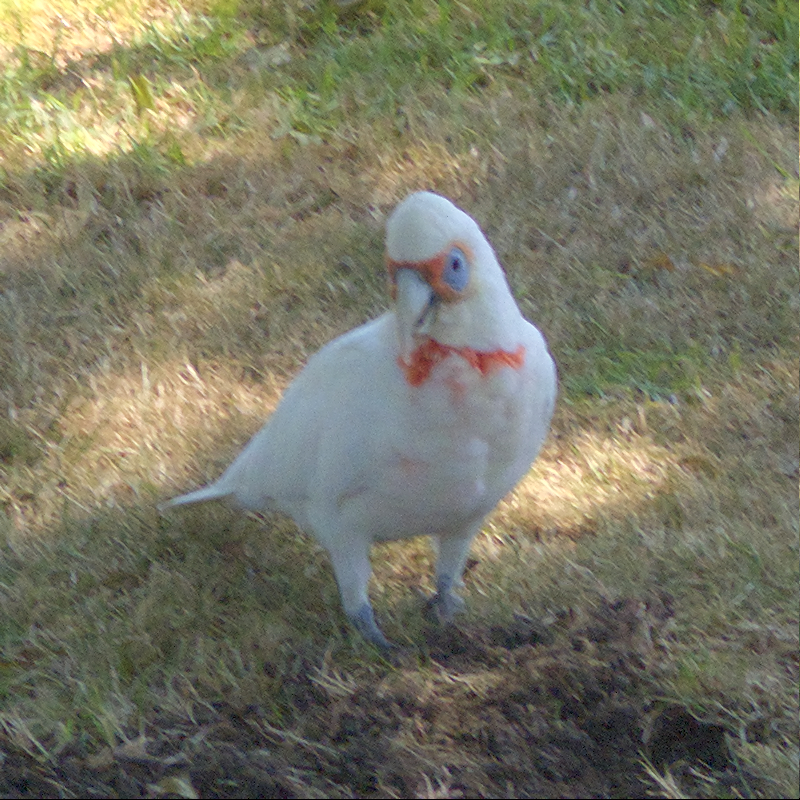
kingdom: Animalia
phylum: Chordata
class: Aves
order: Psittaciformes
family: Psittacidae
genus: Cacatua
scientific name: Cacatua tenuirostris
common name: Long-billed corella
